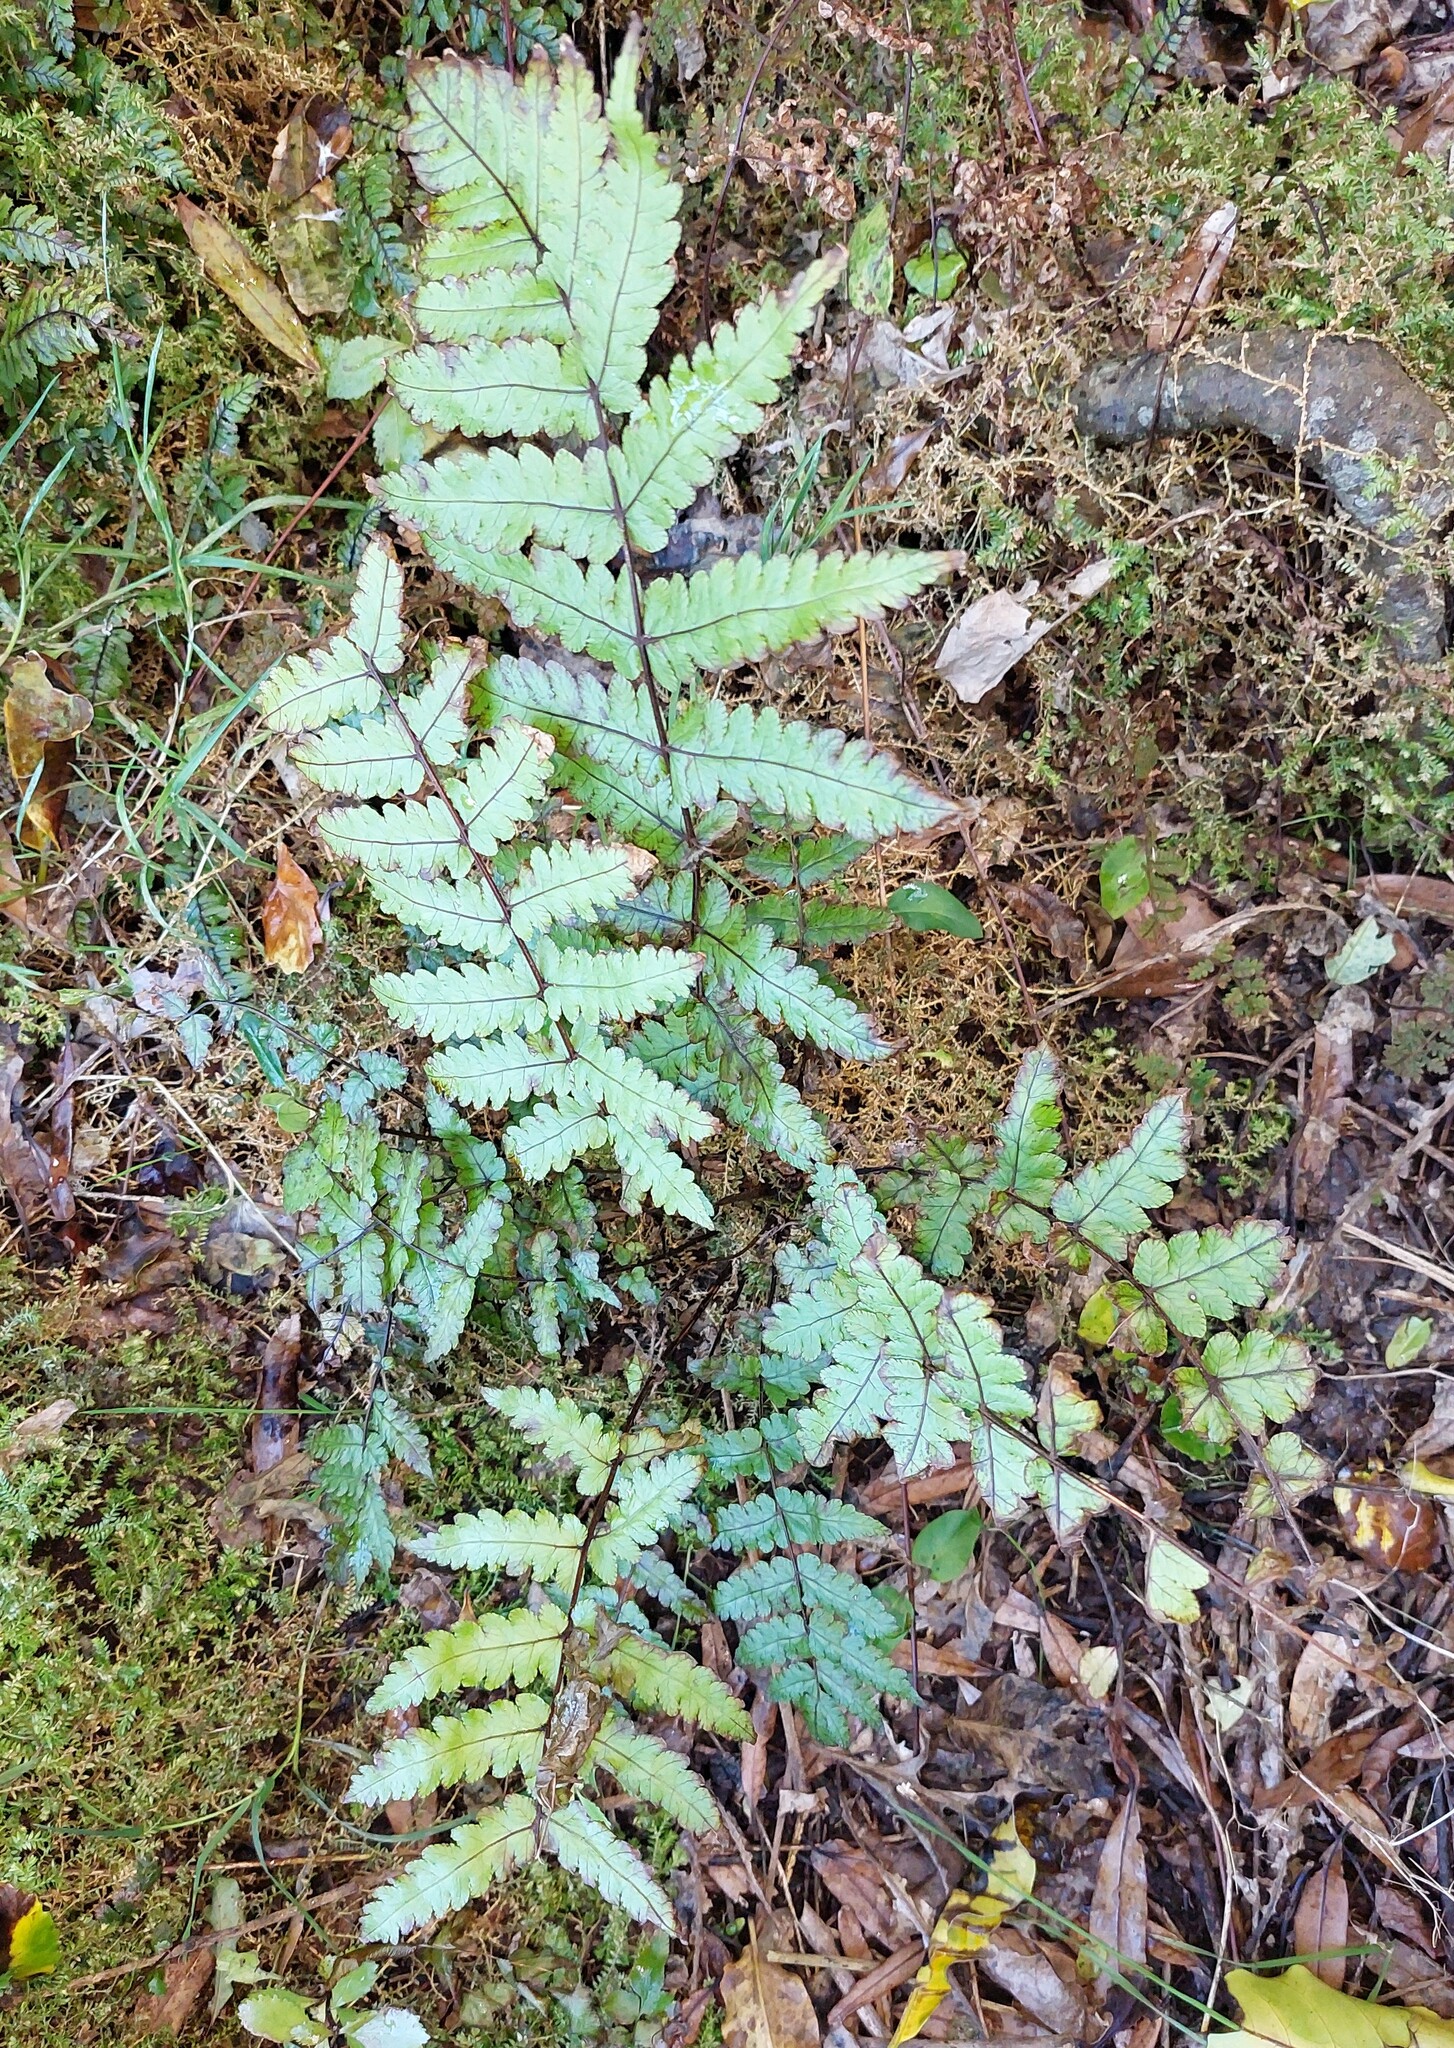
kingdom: Plantae
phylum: Tracheophyta
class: Polypodiopsida
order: Polypodiales
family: Thelypteridaceae
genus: Pakau
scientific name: Pakau pennigera
